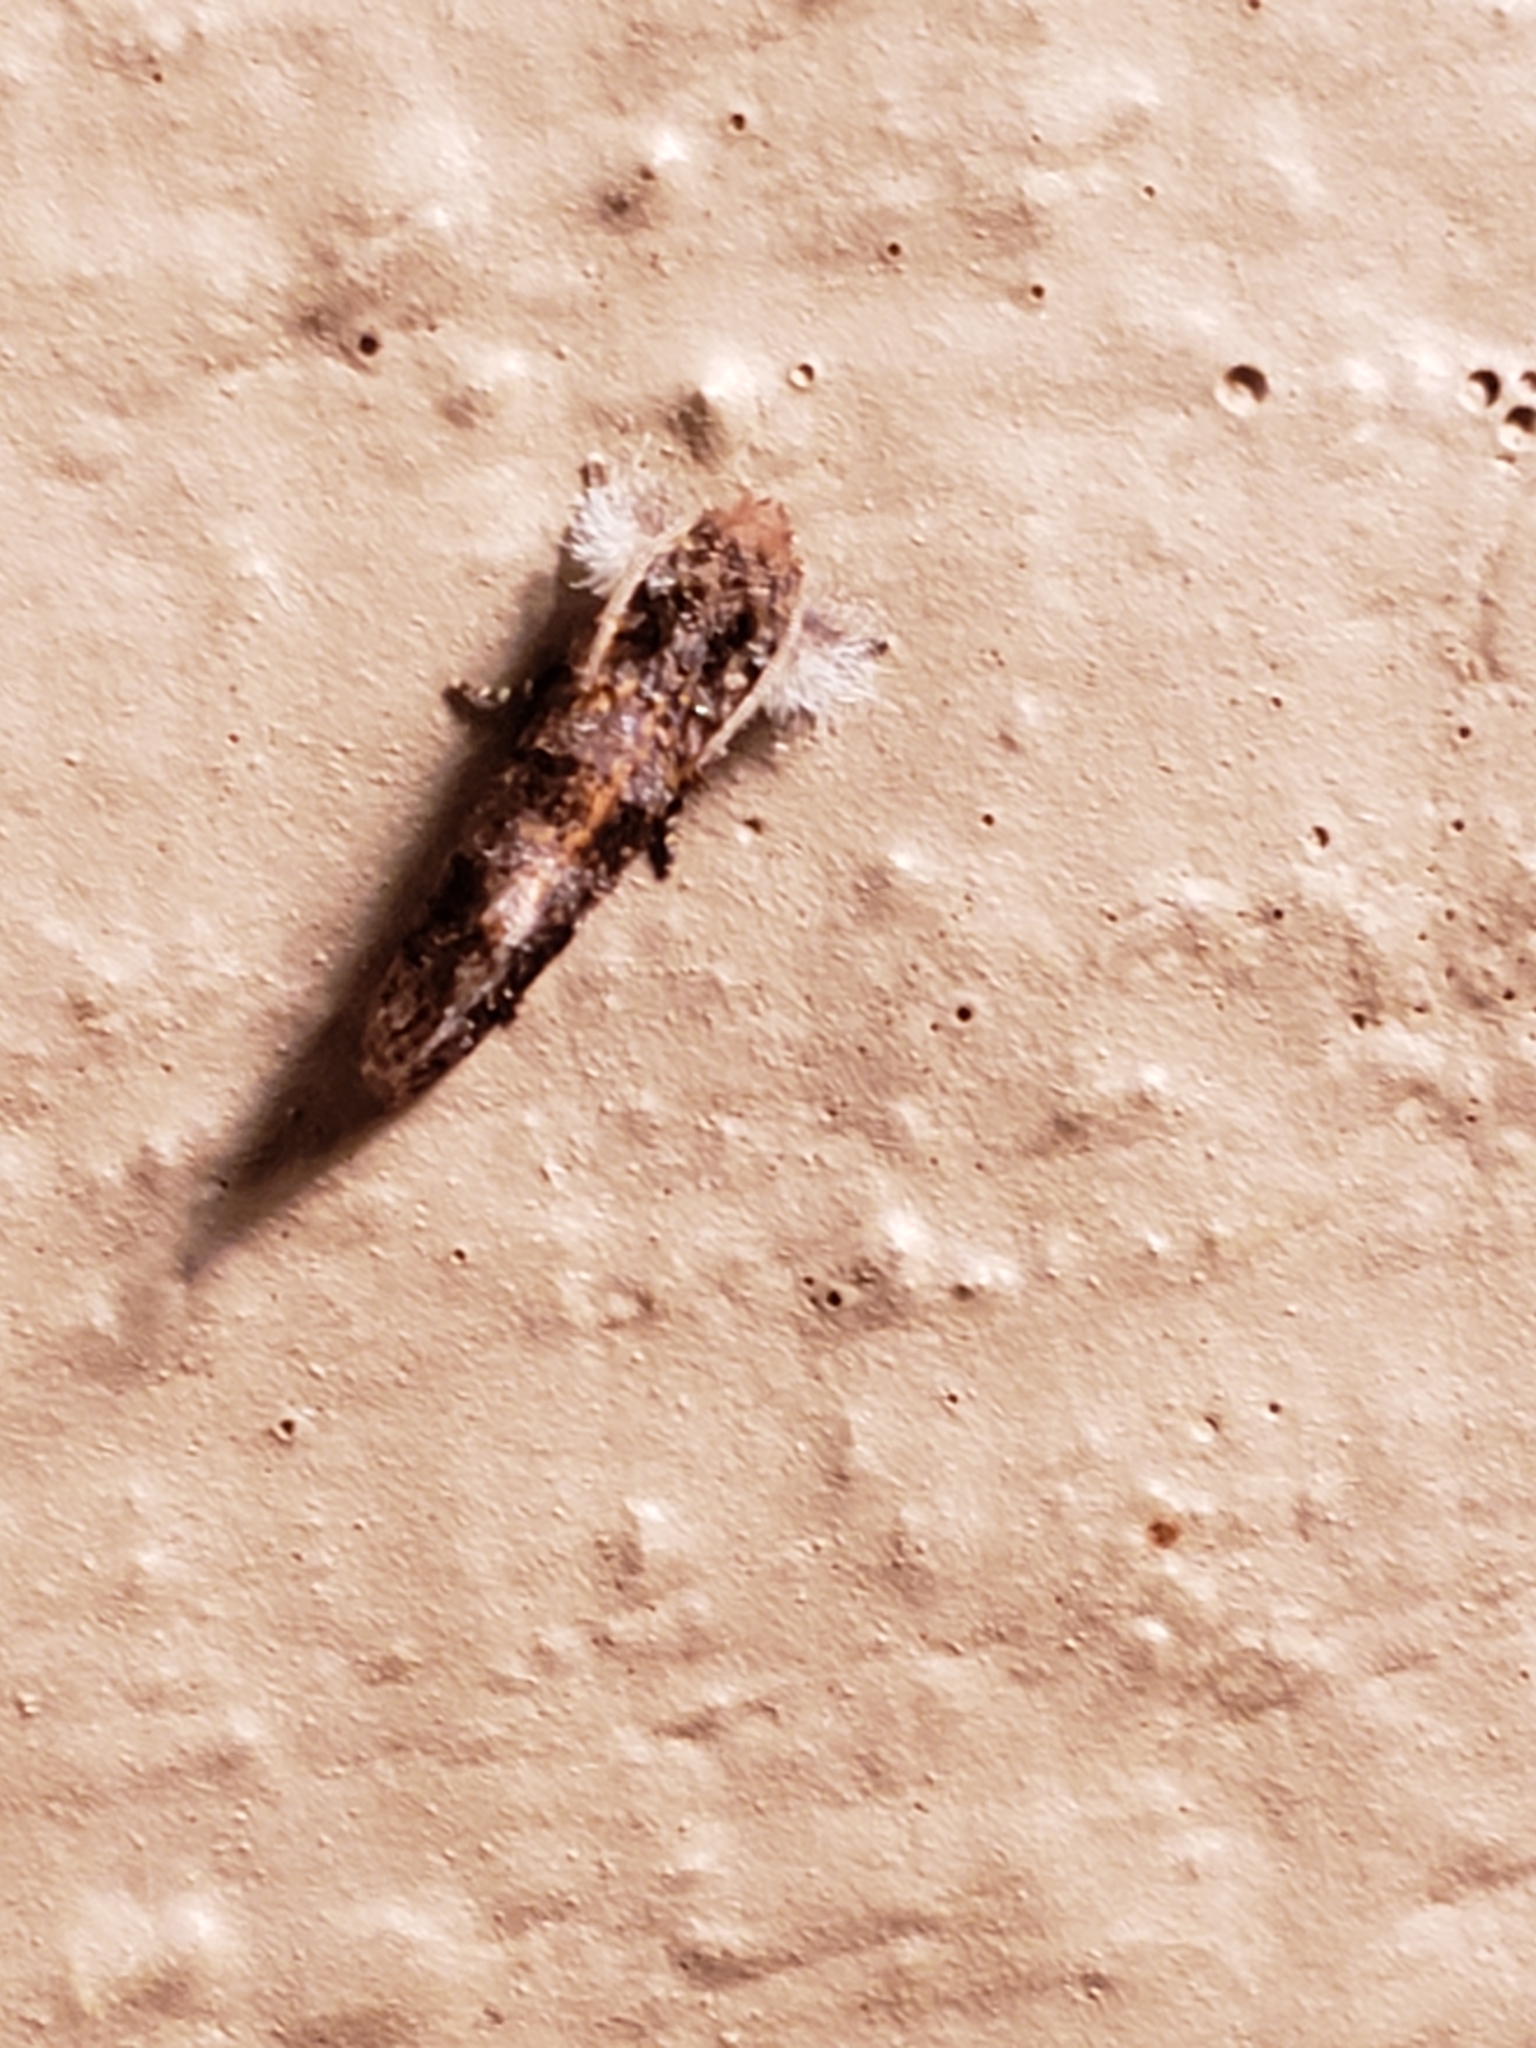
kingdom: Animalia
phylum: Arthropoda
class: Insecta
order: Lepidoptera
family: Tineidae
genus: Acrolophus
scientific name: Acrolophus panamae
